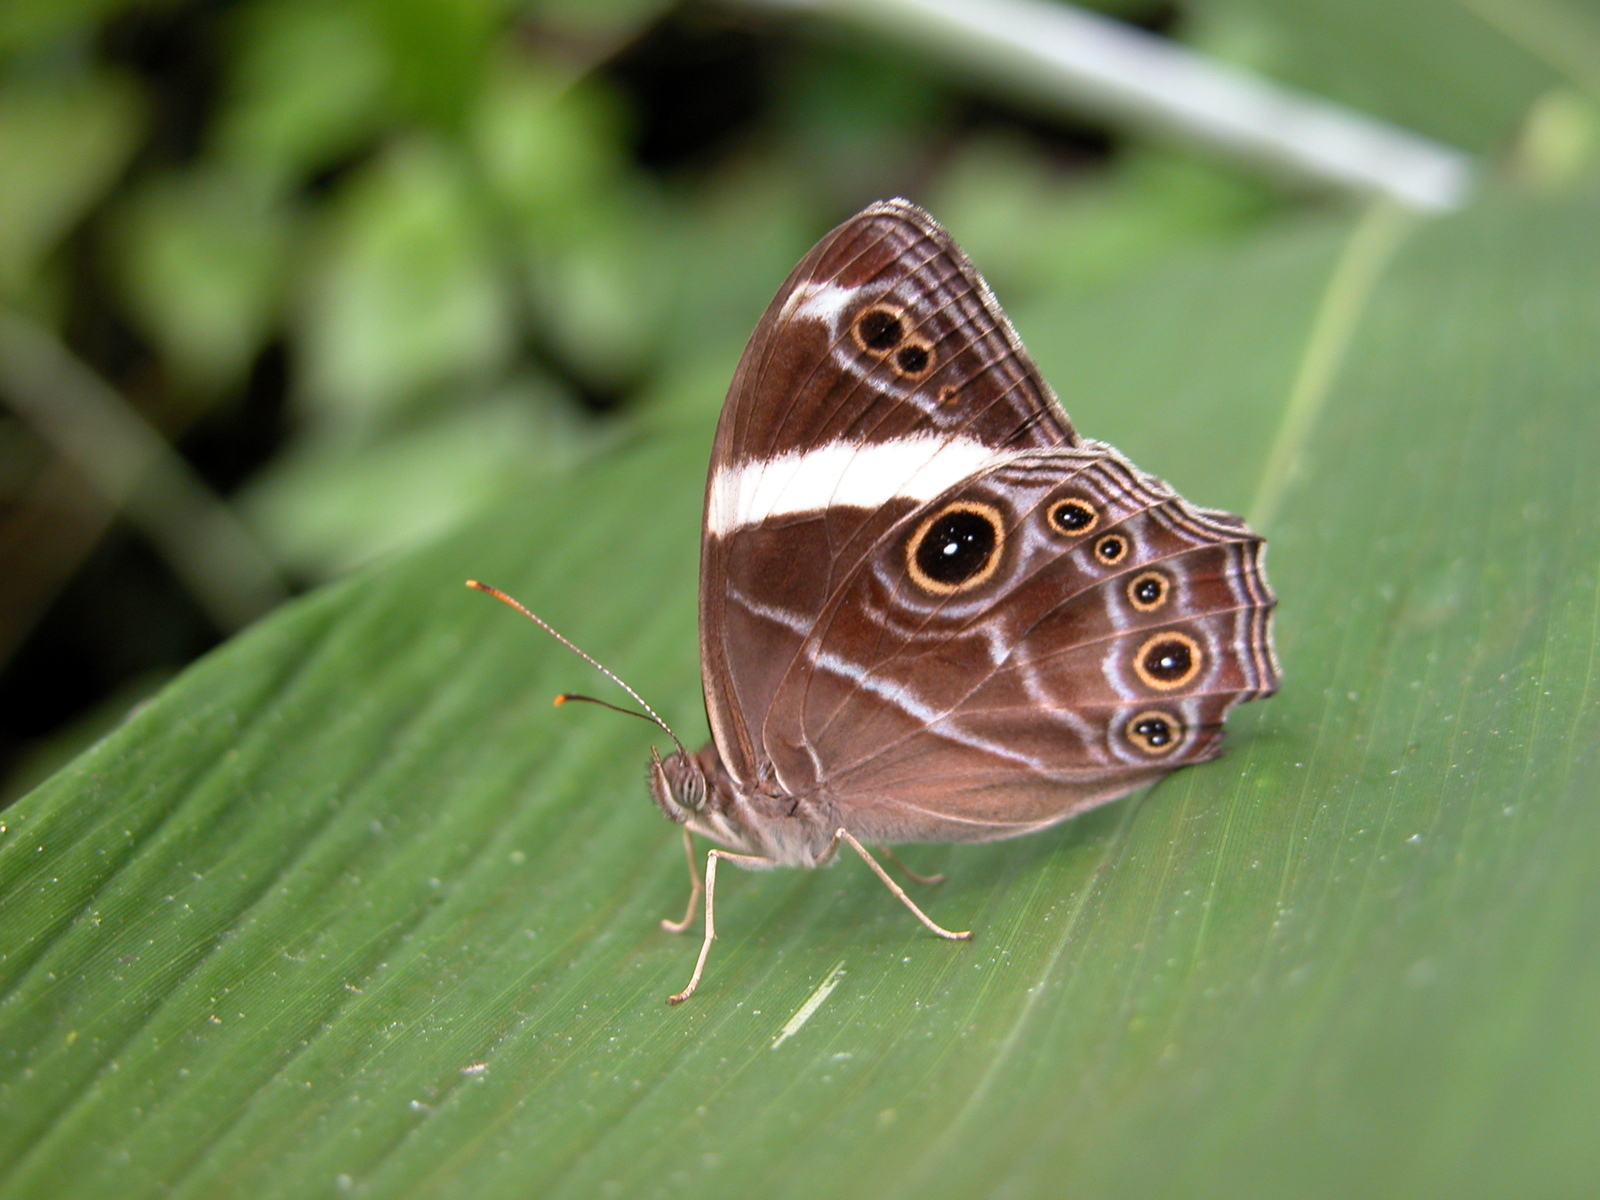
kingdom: Animalia
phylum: Arthropoda
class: Insecta
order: Lepidoptera
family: Nymphalidae
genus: Lethe
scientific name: Lethe confusa
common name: Banded treebrown
